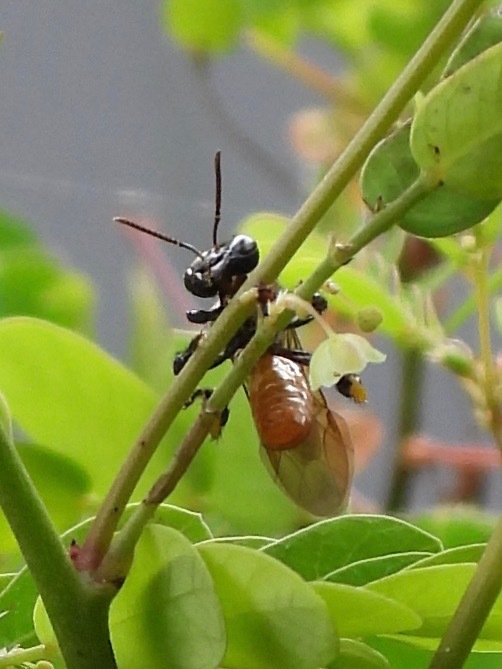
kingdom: Animalia
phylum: Arthropoda
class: Insecta
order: Hymenoptera
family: Apidae
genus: Trigona
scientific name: Trigona fulviventris
